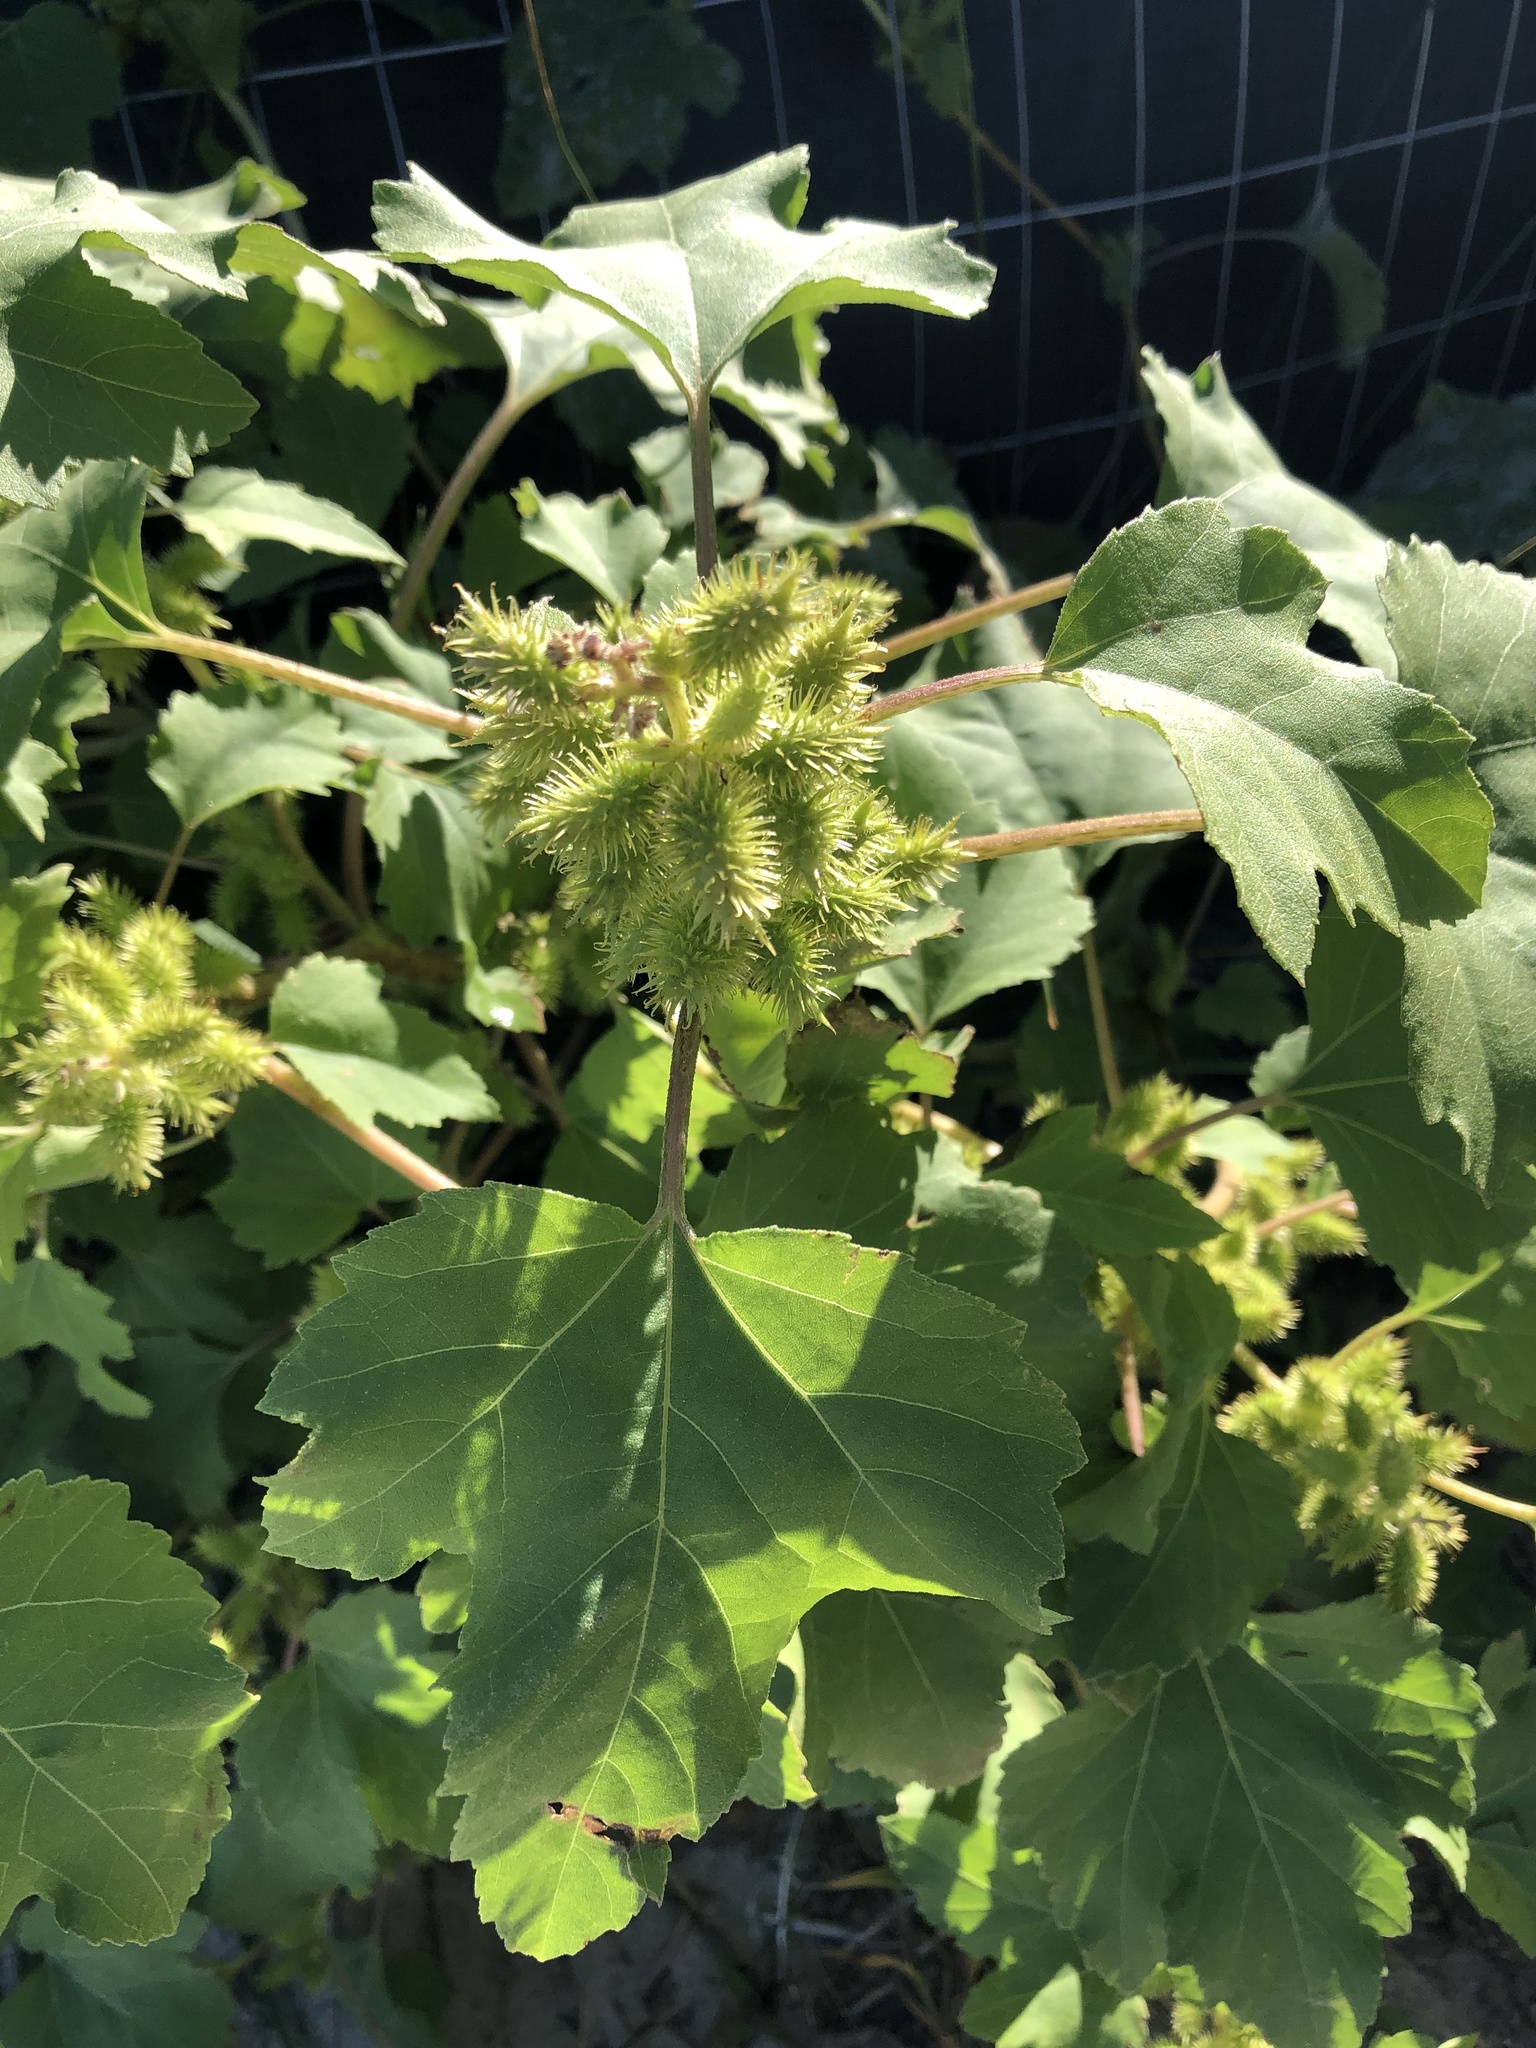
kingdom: Plantae
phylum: Tracheophyta
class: Magnoliopsida
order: Asterales
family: Asteraceae
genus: Xanthium
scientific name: Xanthium strumarium
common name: Rough cocklebur
